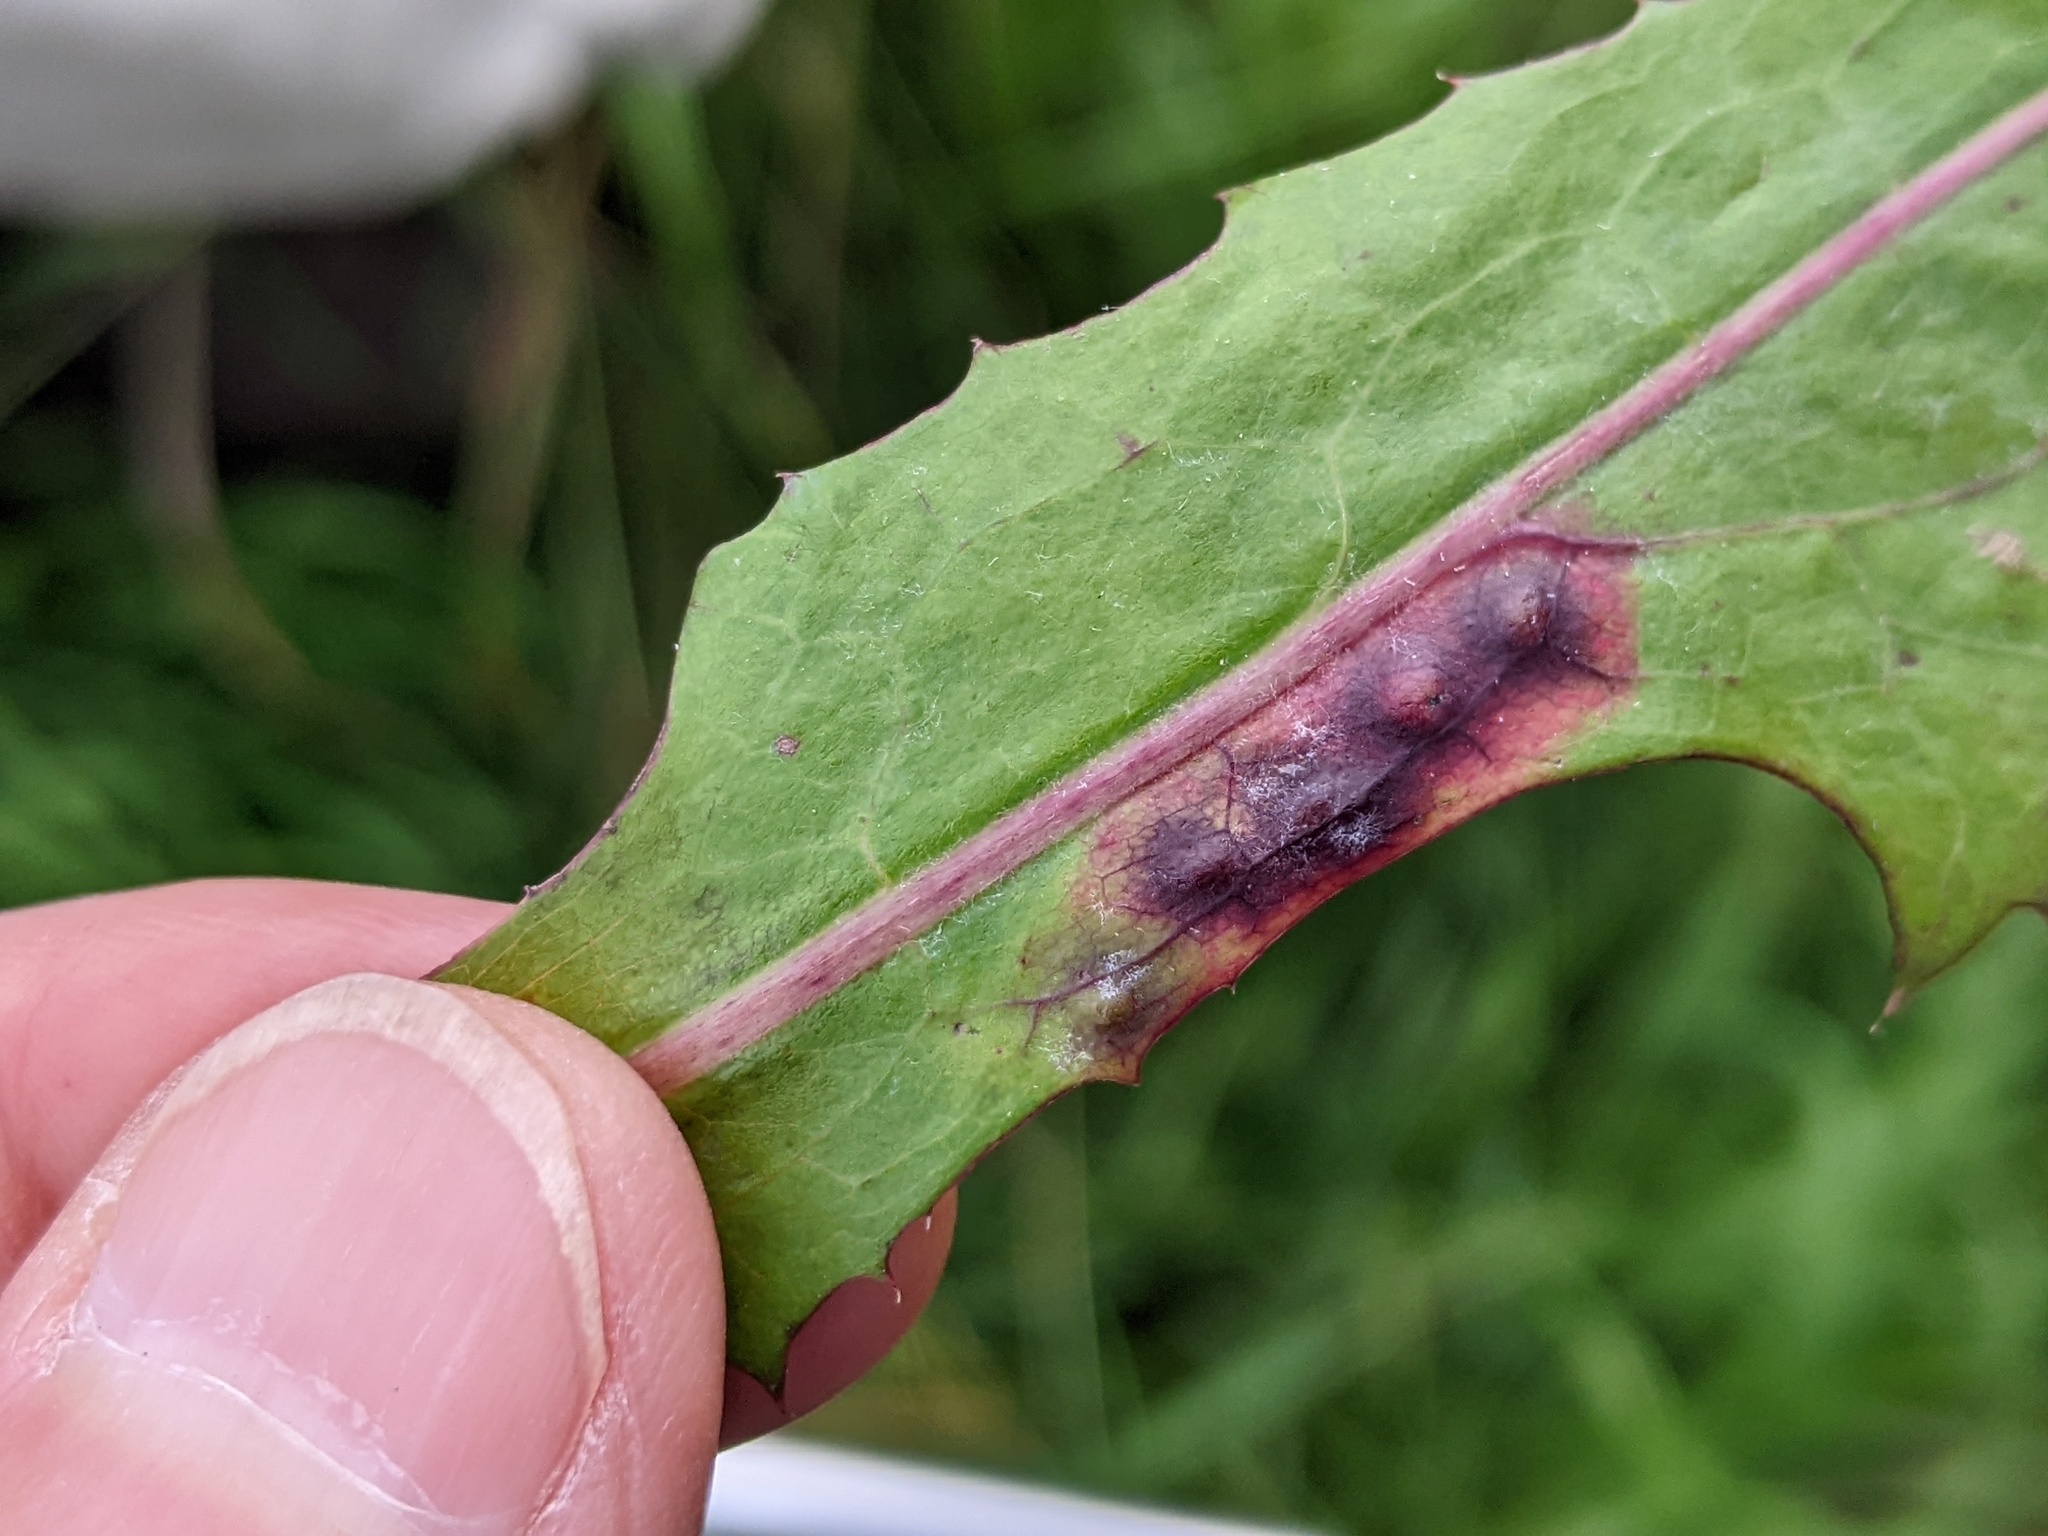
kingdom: Animalia
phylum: Arthropoda
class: Insecta
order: Diptera
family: Cecidomyiidae
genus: Cystiphora
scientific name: Cystiphora sonchi
